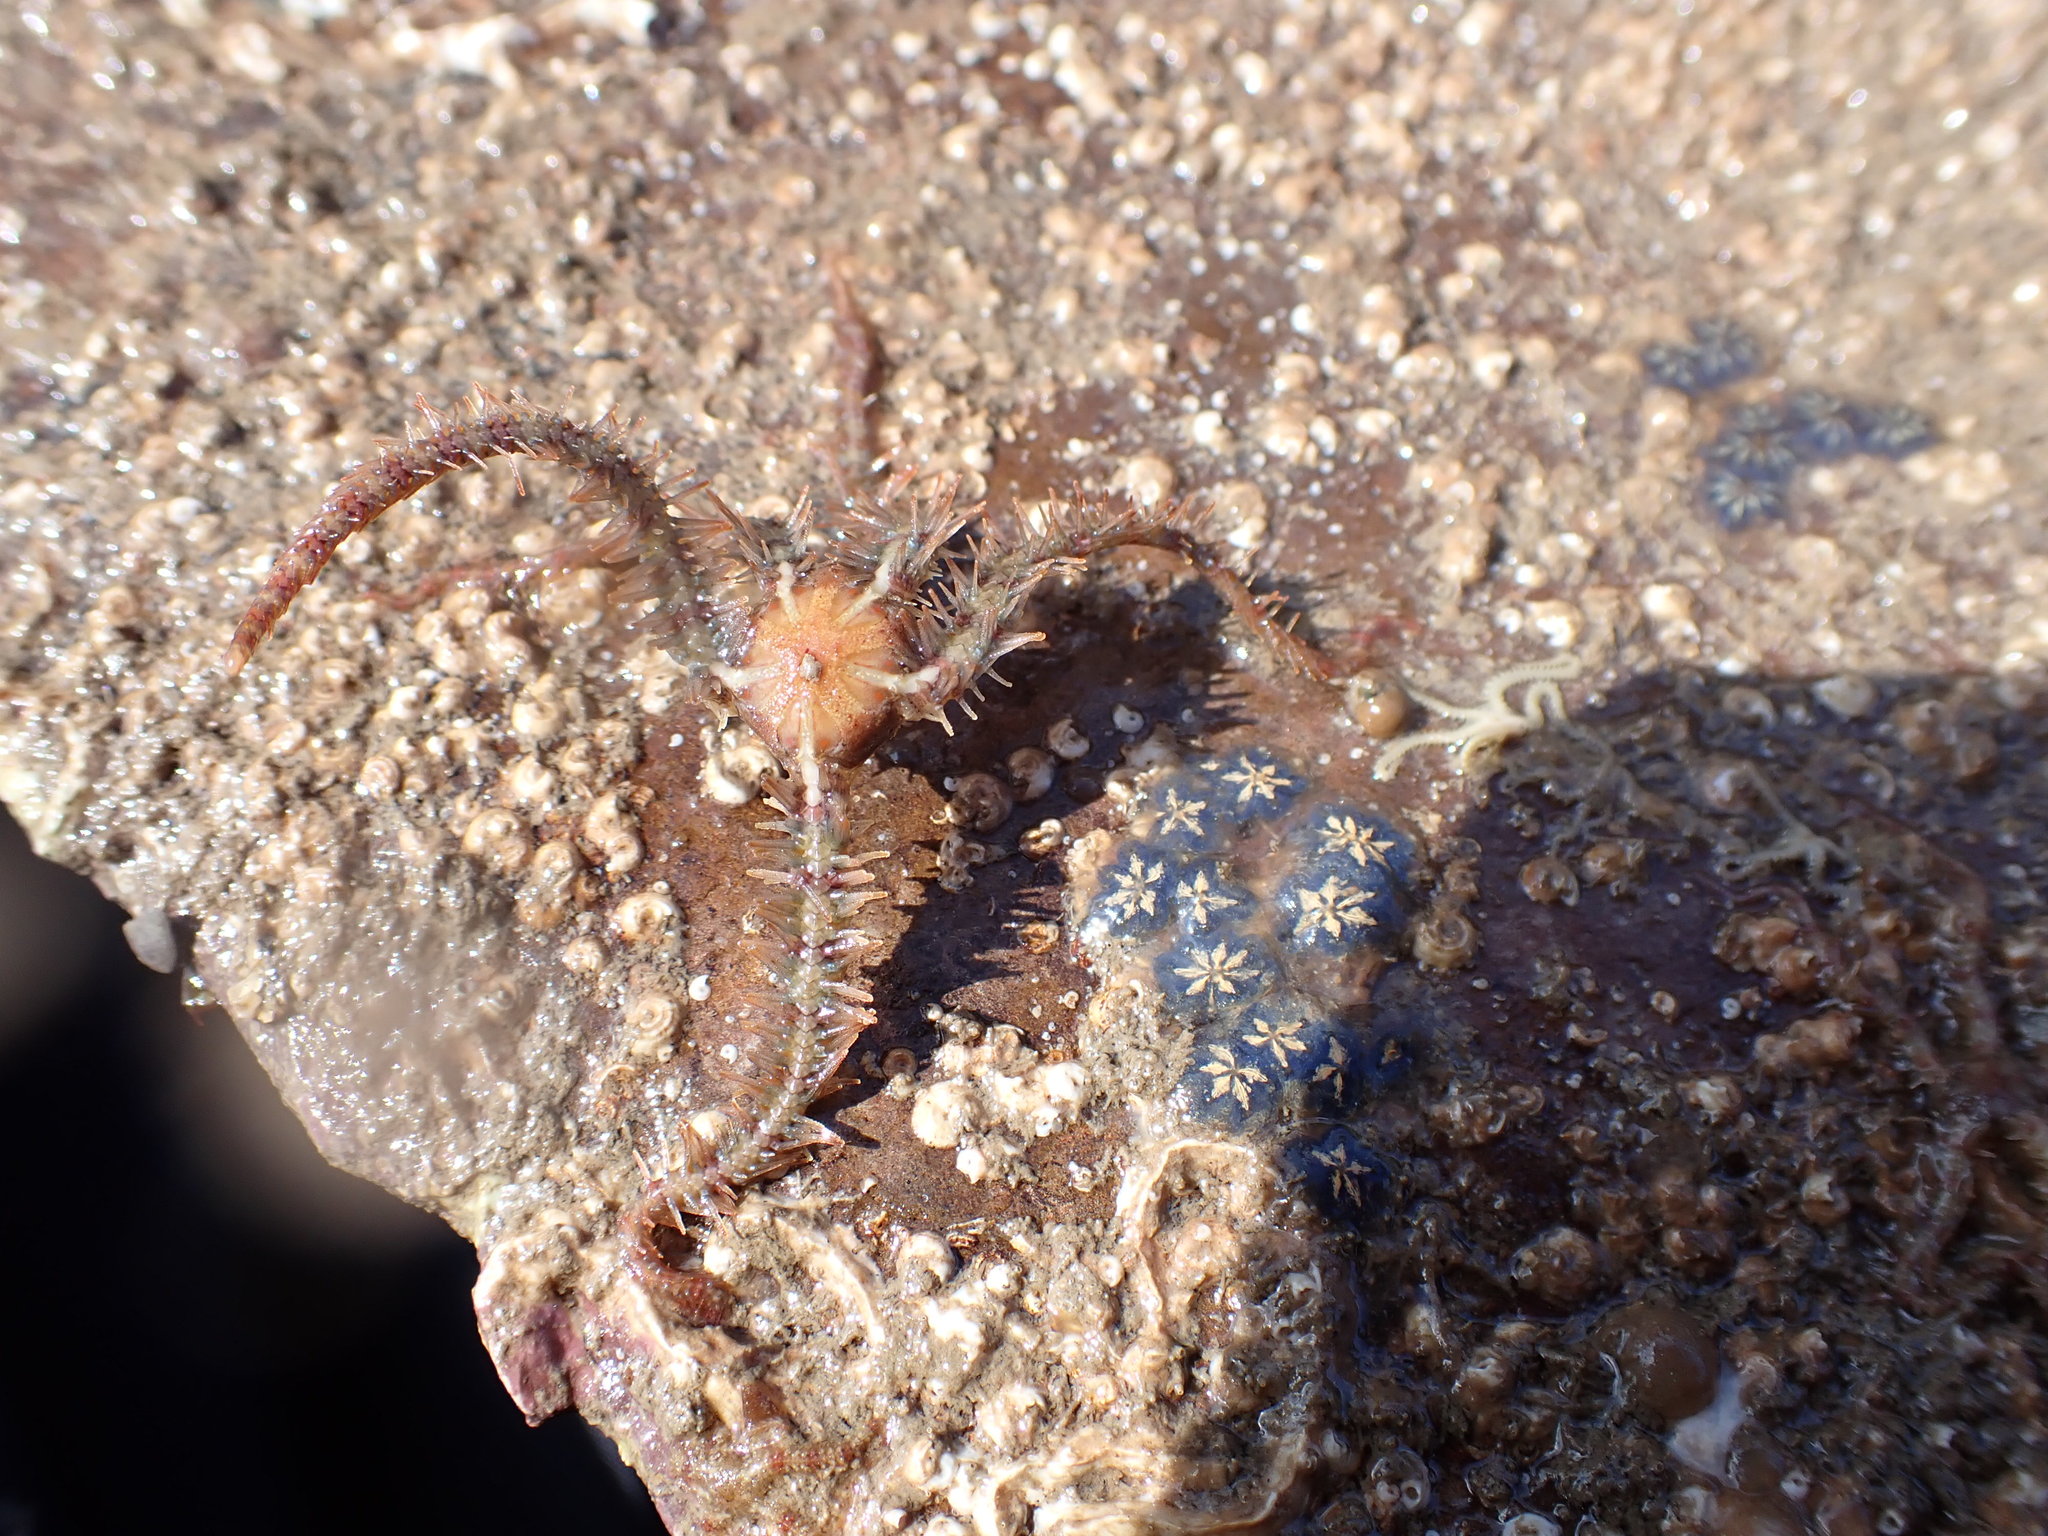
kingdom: Animalia
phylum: Echinodermata
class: Ophiuroidea
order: Amphilepidida
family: Ophiotrichidae
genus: Ophiothrix
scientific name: Ophiothrix fragilis
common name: Common brittlestar
